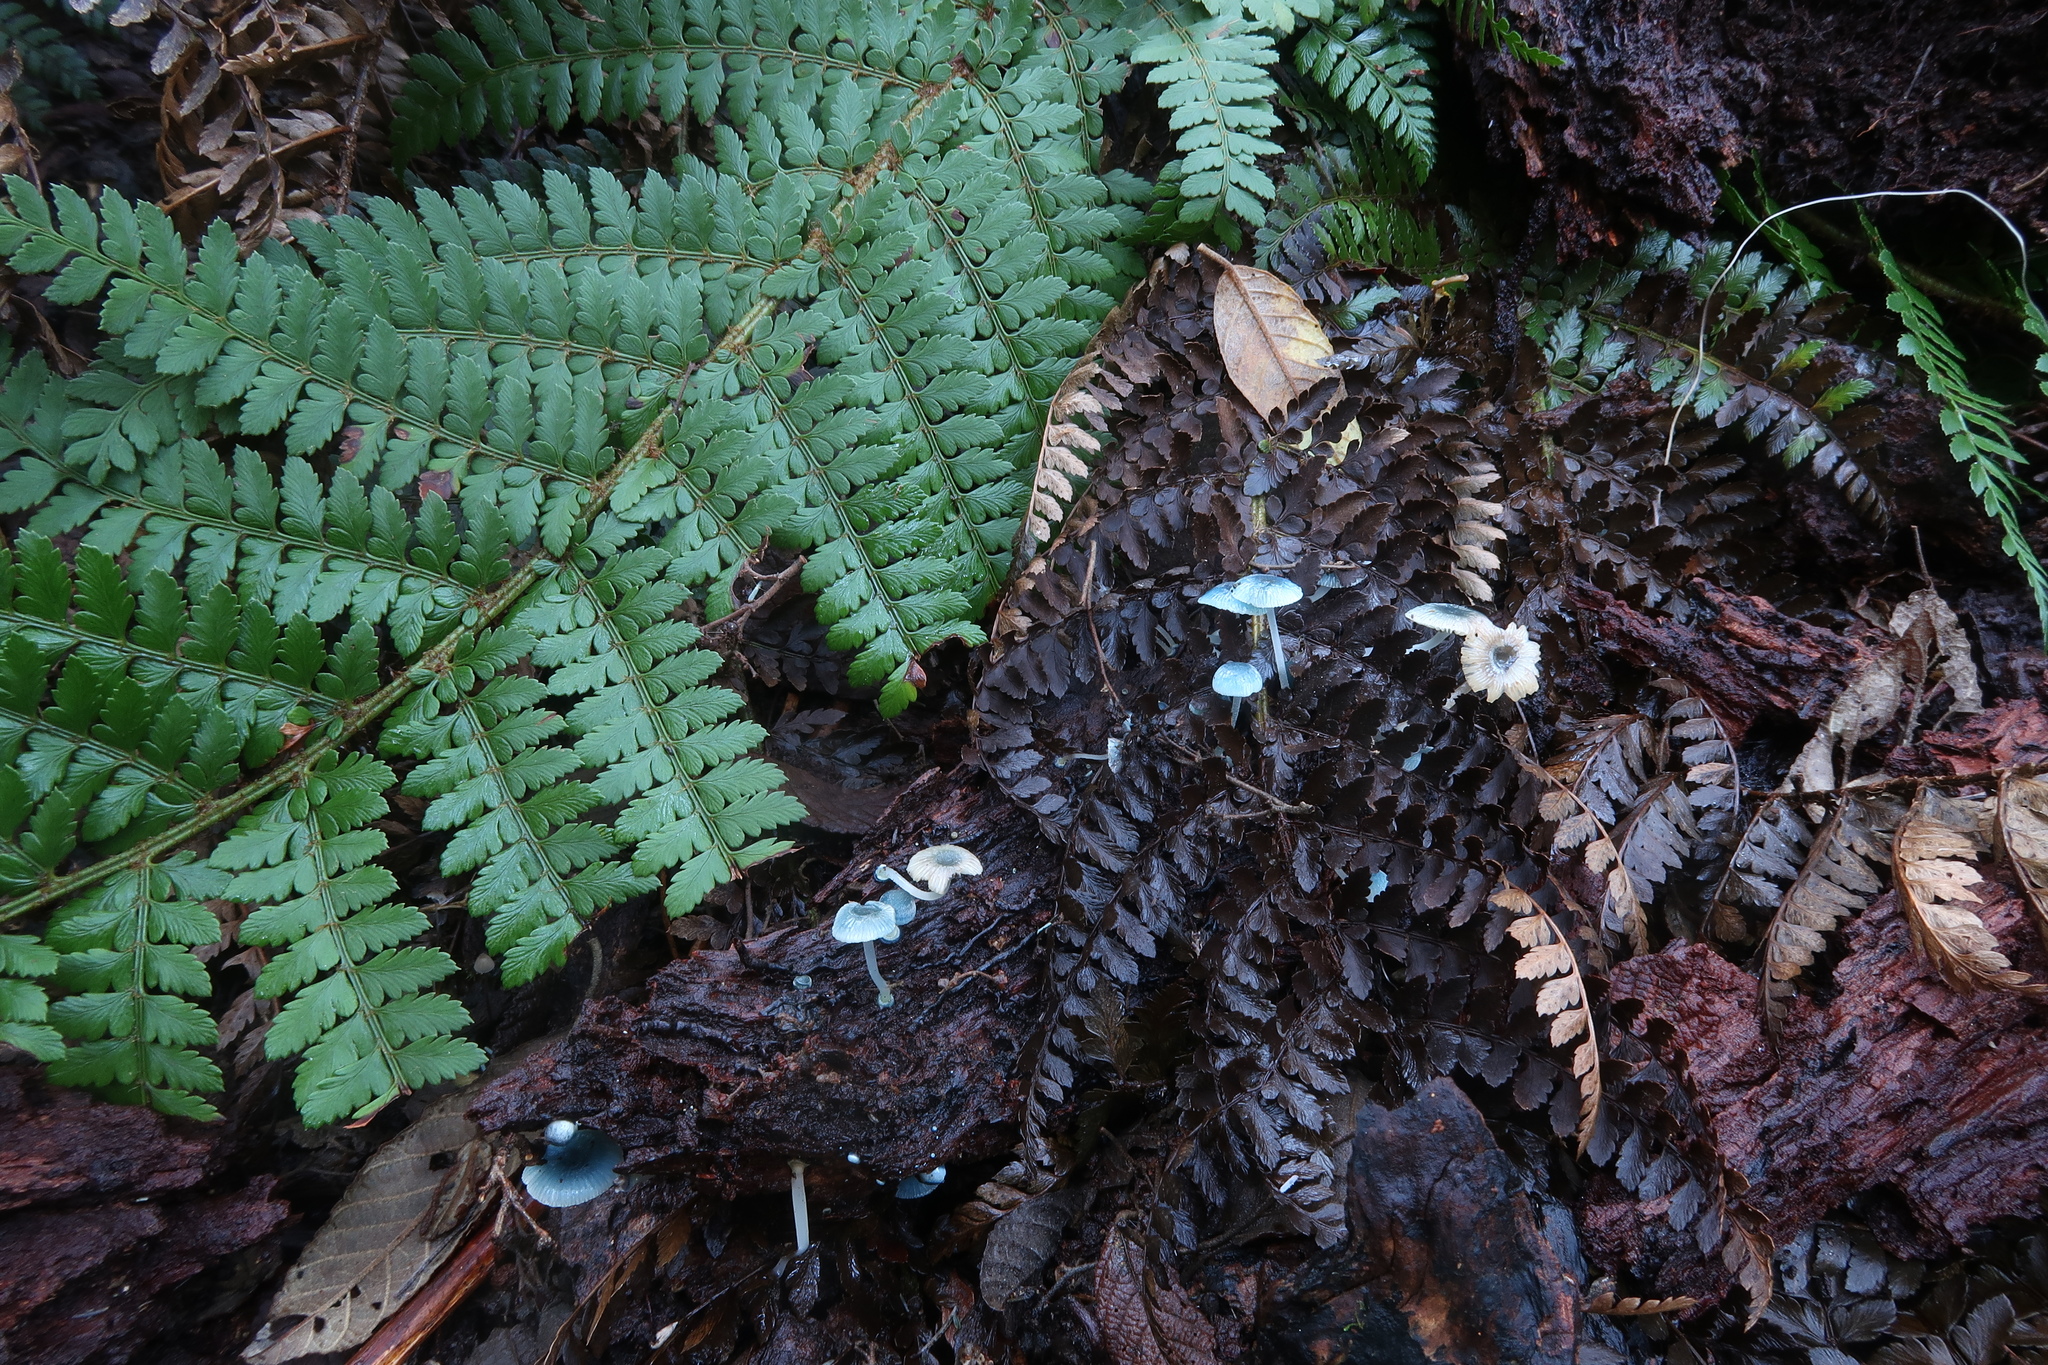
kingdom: Fungi
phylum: Basidiomycota
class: Agaricomycetes
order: Agaricales
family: Mycenaceae
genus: Mycena
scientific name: Mycena interrupta
